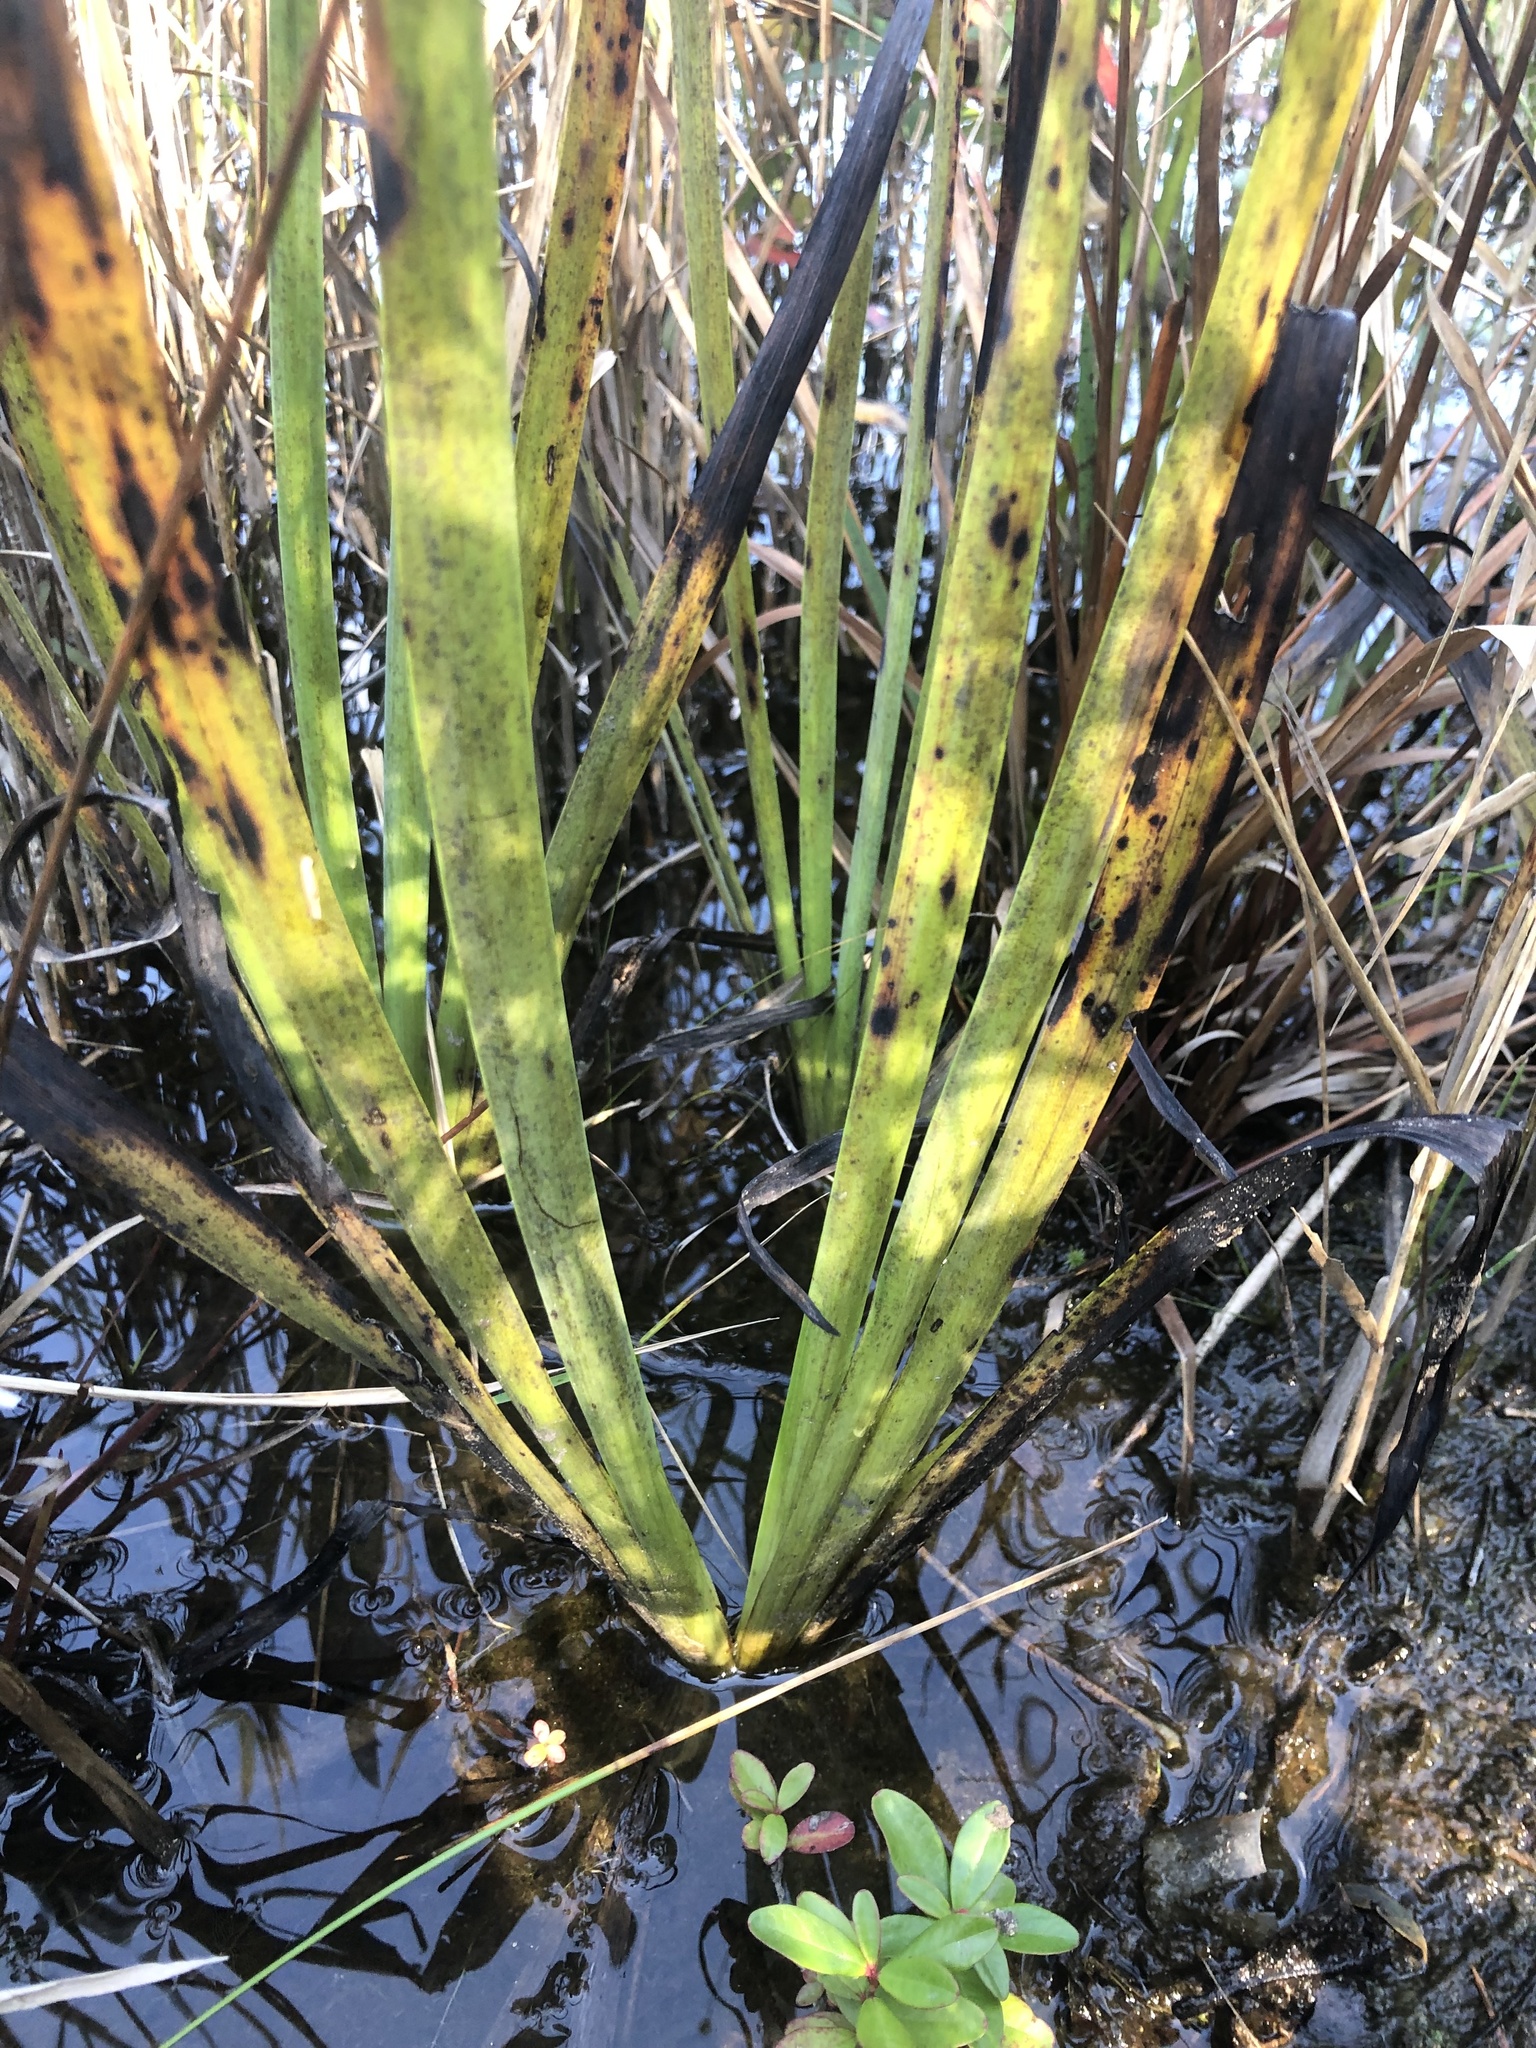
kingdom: Plantae
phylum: Tracheophyta
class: Liliopsida
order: Poales
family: Xyridaceae
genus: Xyris
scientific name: Xyris fimbriata
